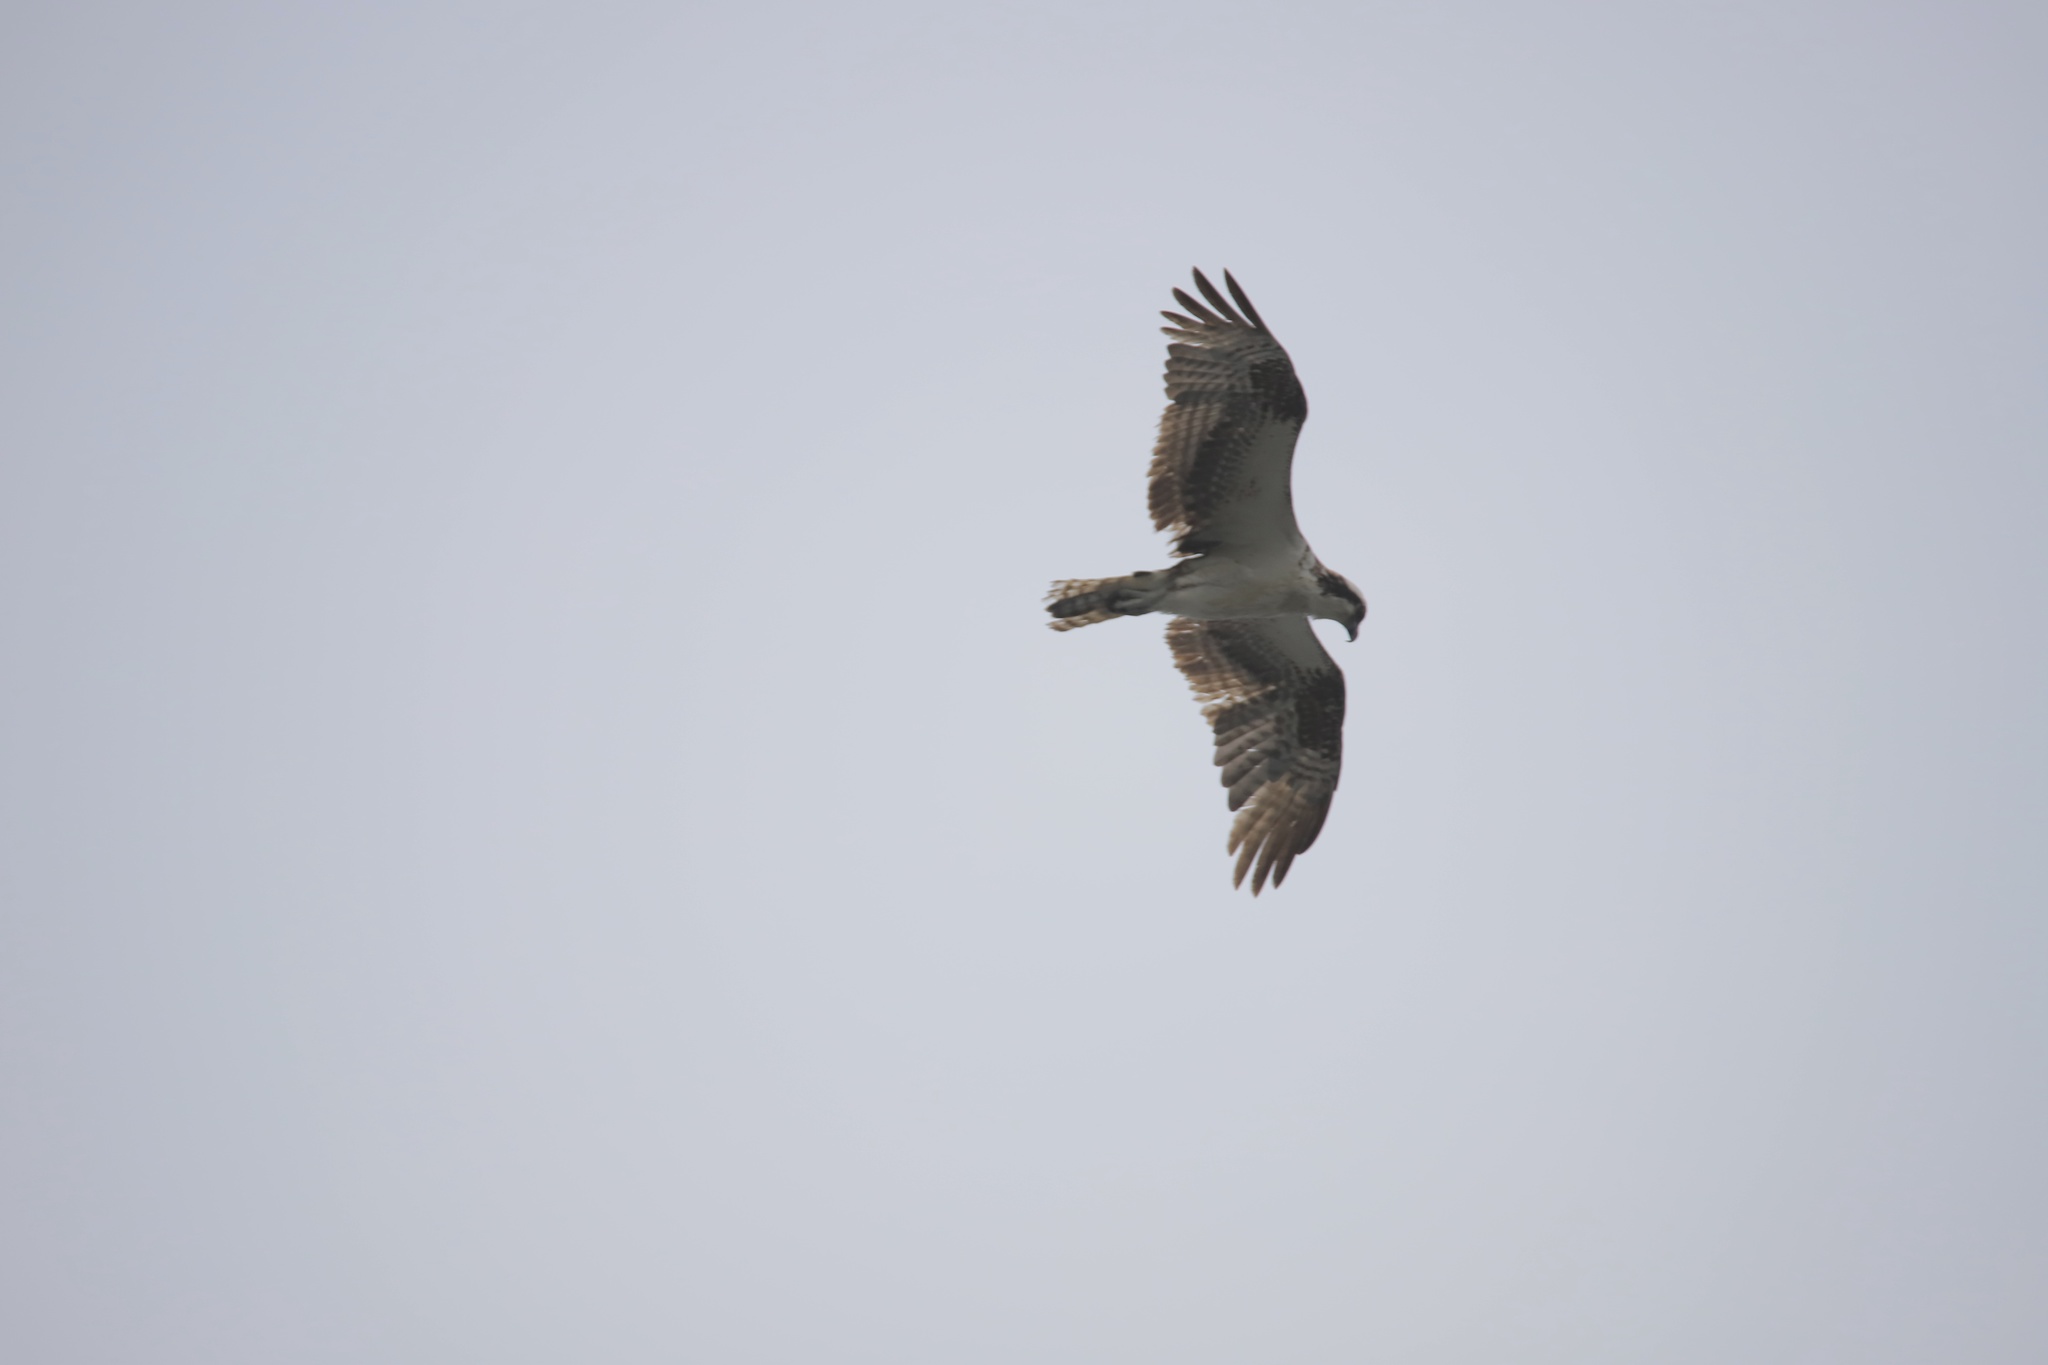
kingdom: Animalia
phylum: Chordata
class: Aves
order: Accipitriformes
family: Pandionidae
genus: Pandion
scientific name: Pandion haliaetus
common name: Osprey
